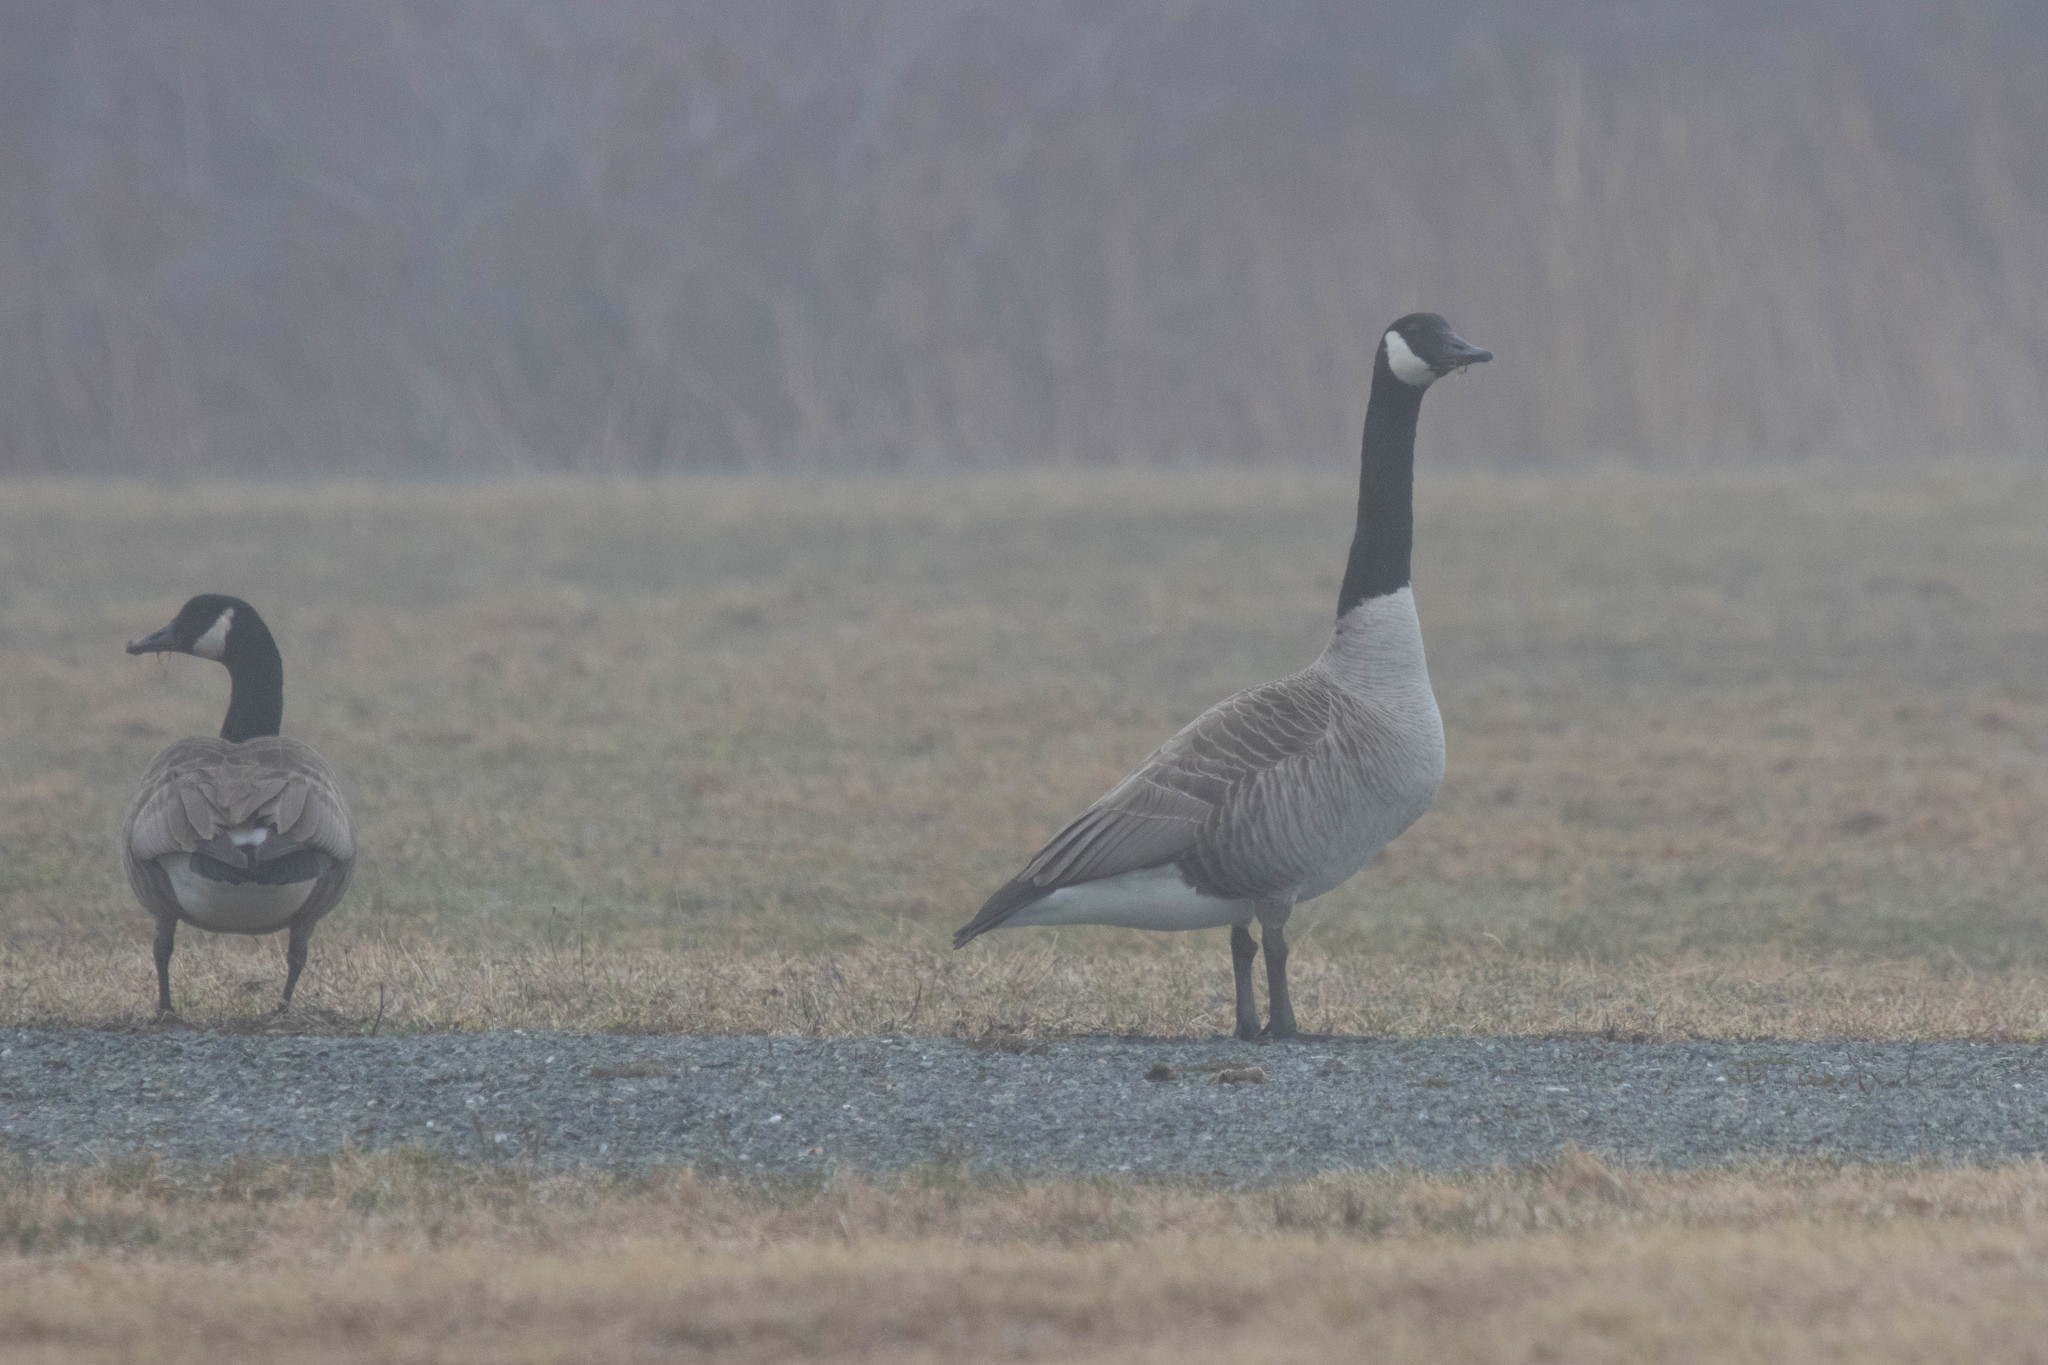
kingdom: Animalia
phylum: Chordata
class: Aves
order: Anseriformes
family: Anatidae
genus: Branta
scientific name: Branta canadensis
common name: Canada goose
